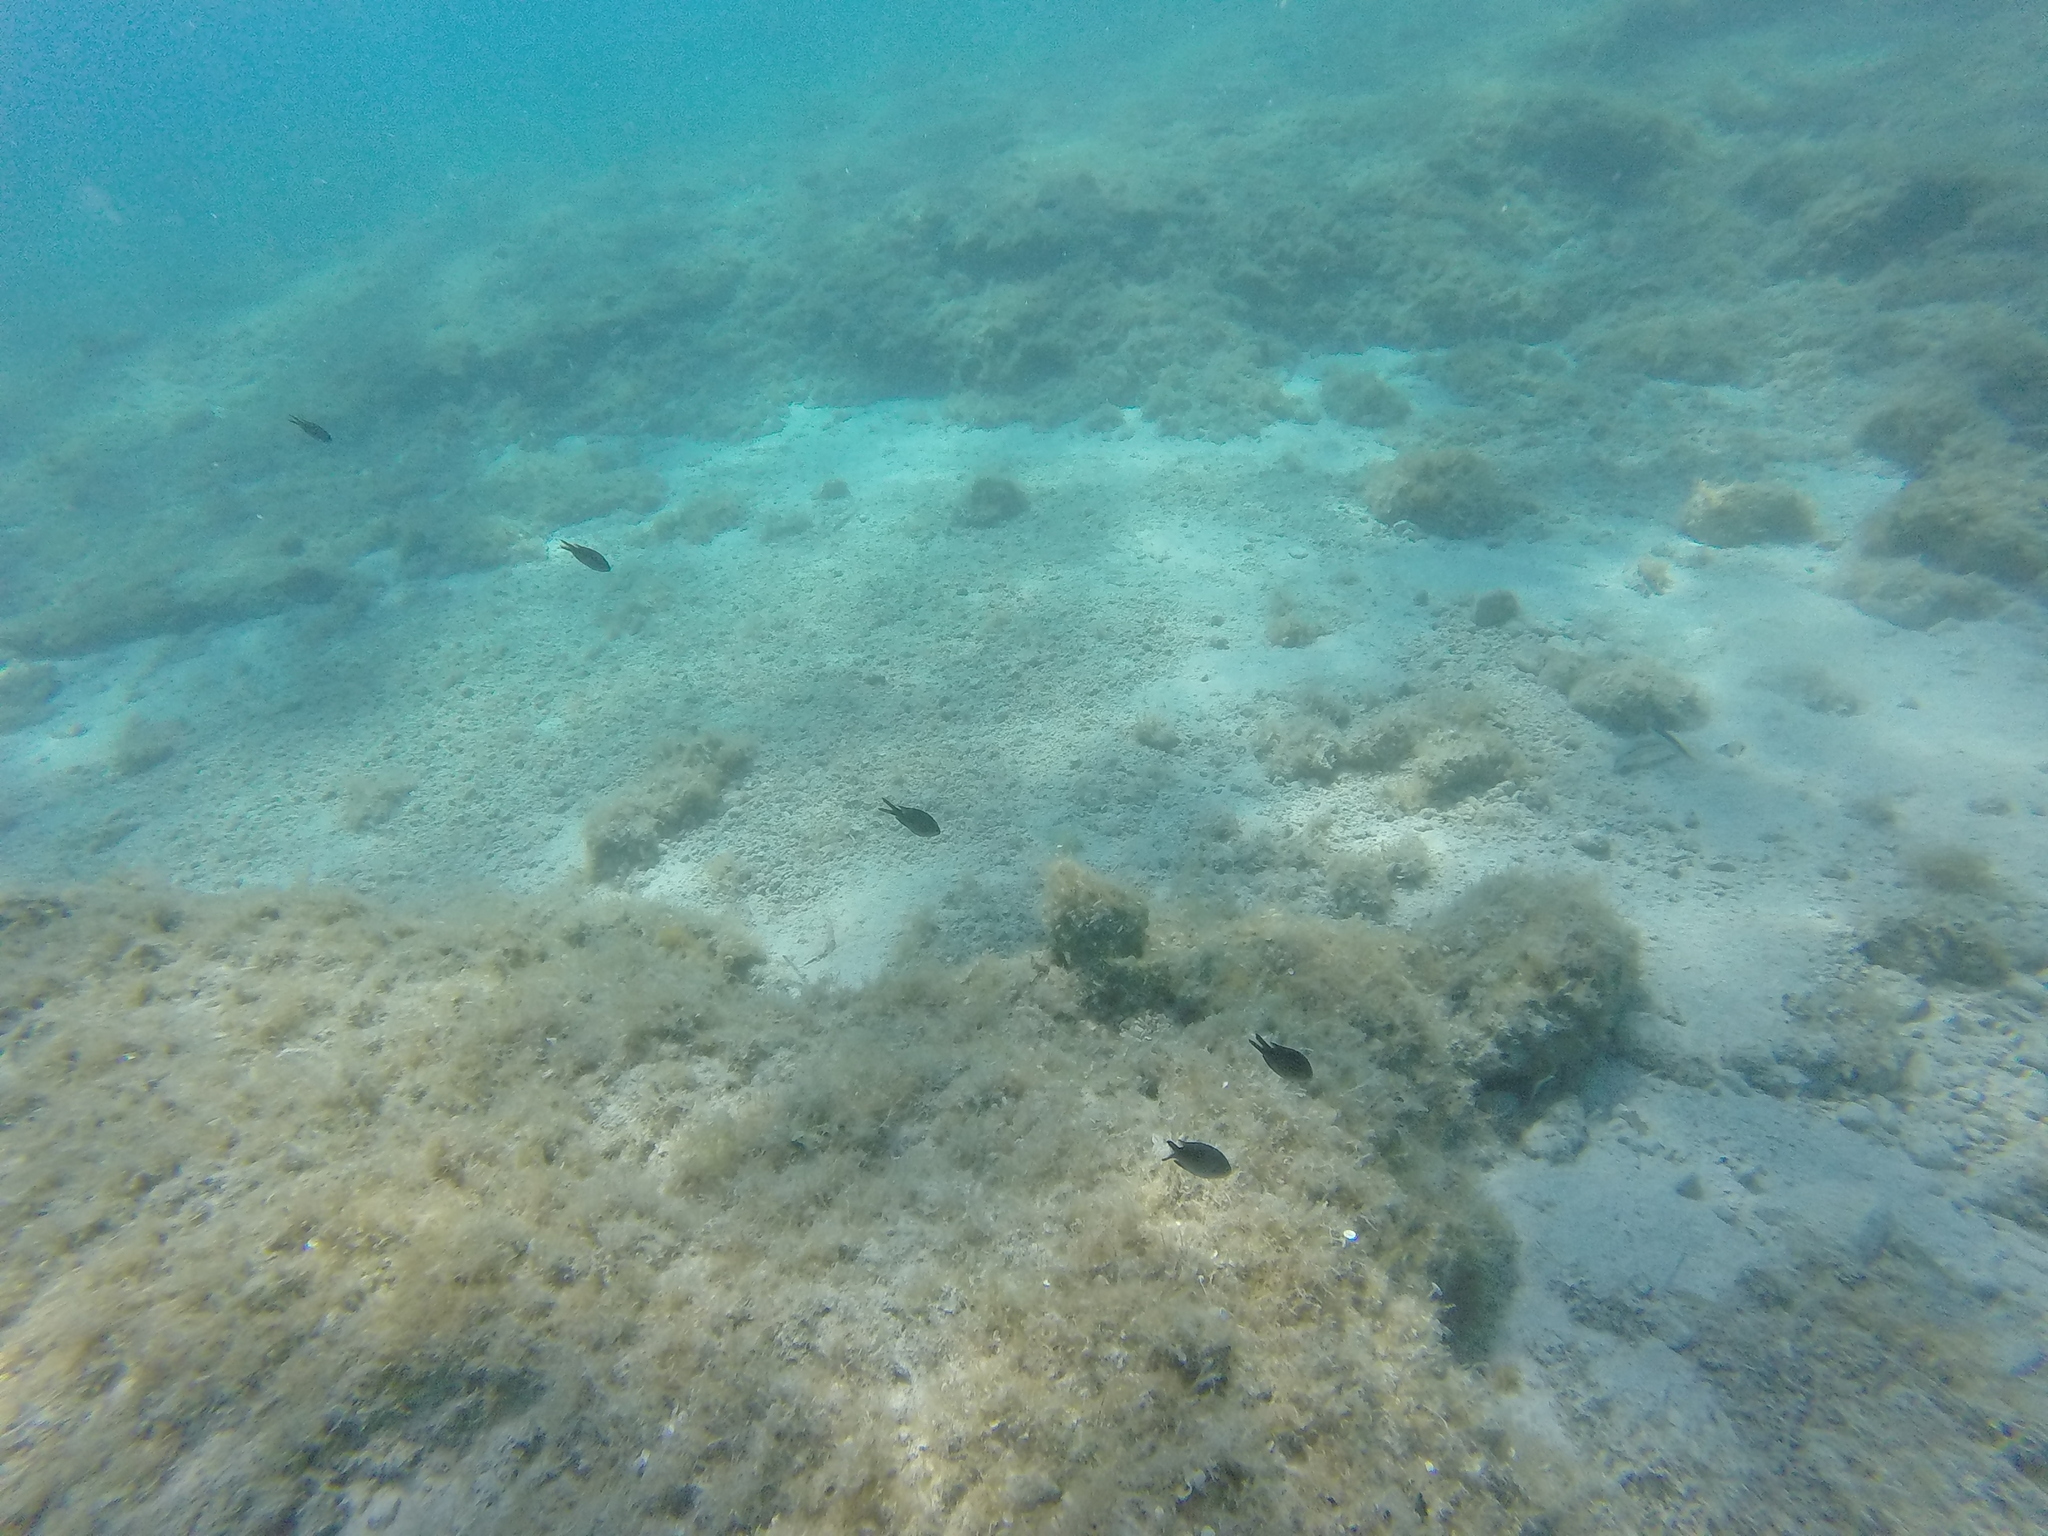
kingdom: Animalia
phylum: Chordata
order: Perciformes
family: Pomacentridae
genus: Chromis
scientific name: Chromis chromis
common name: Damselfish
